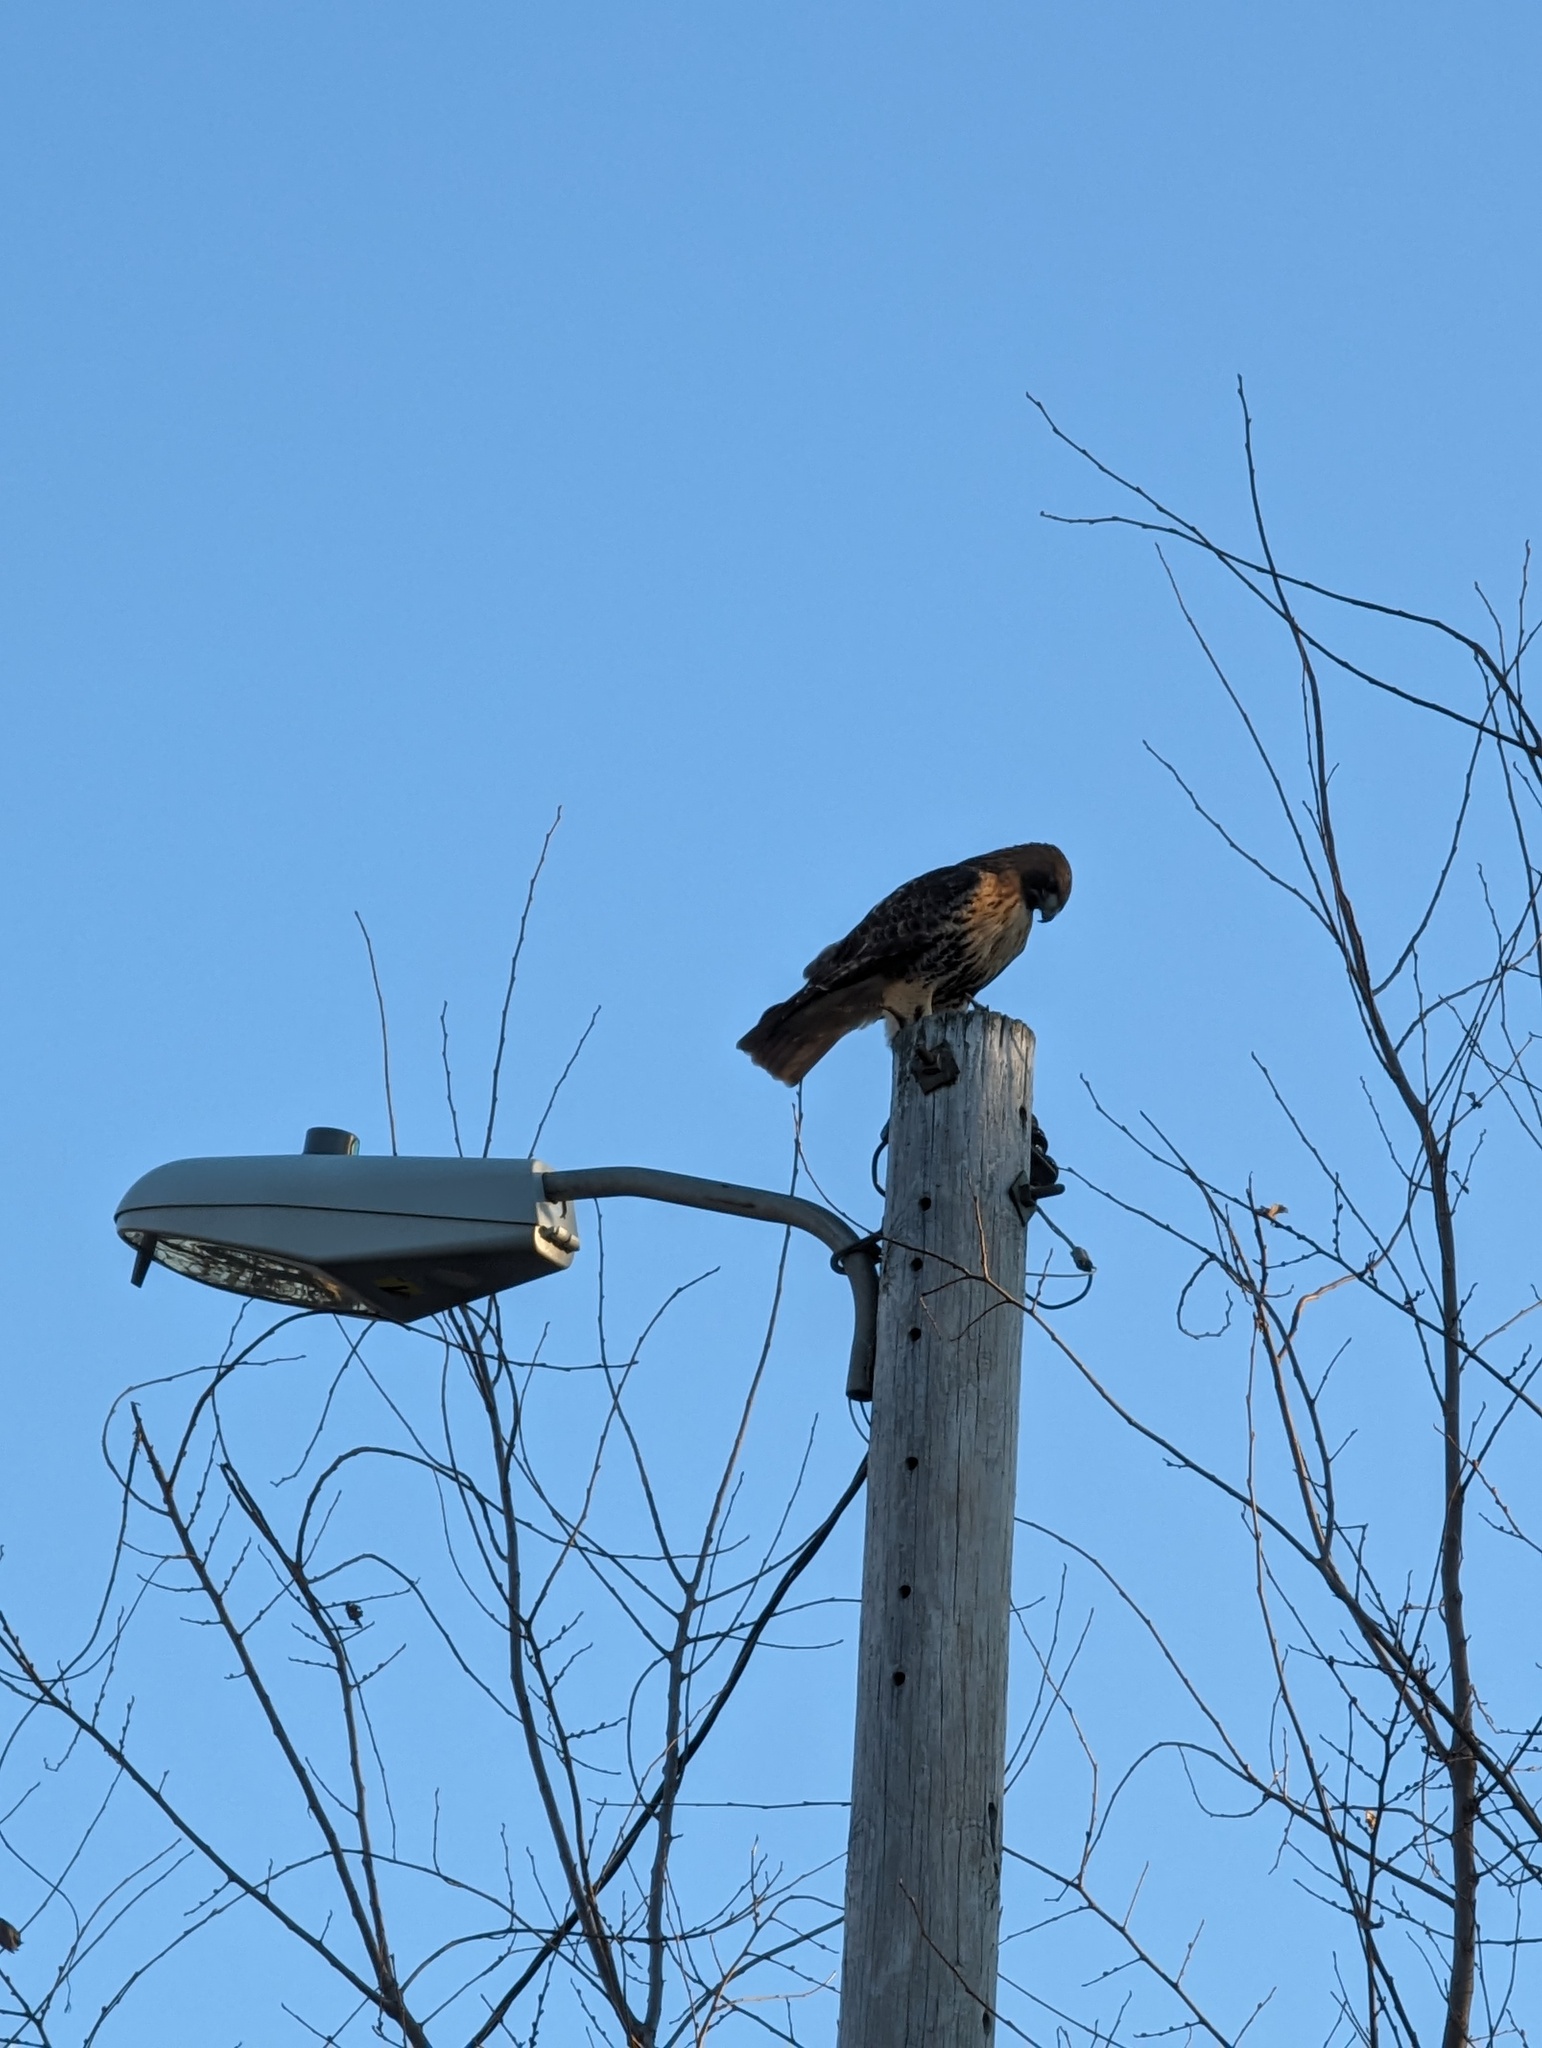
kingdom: Animalia
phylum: Chordata
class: Aves
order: Accipitriformes
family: Accipitridae
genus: Buteo
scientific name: Buteo jamaicensis
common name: Red-tailed hawk
